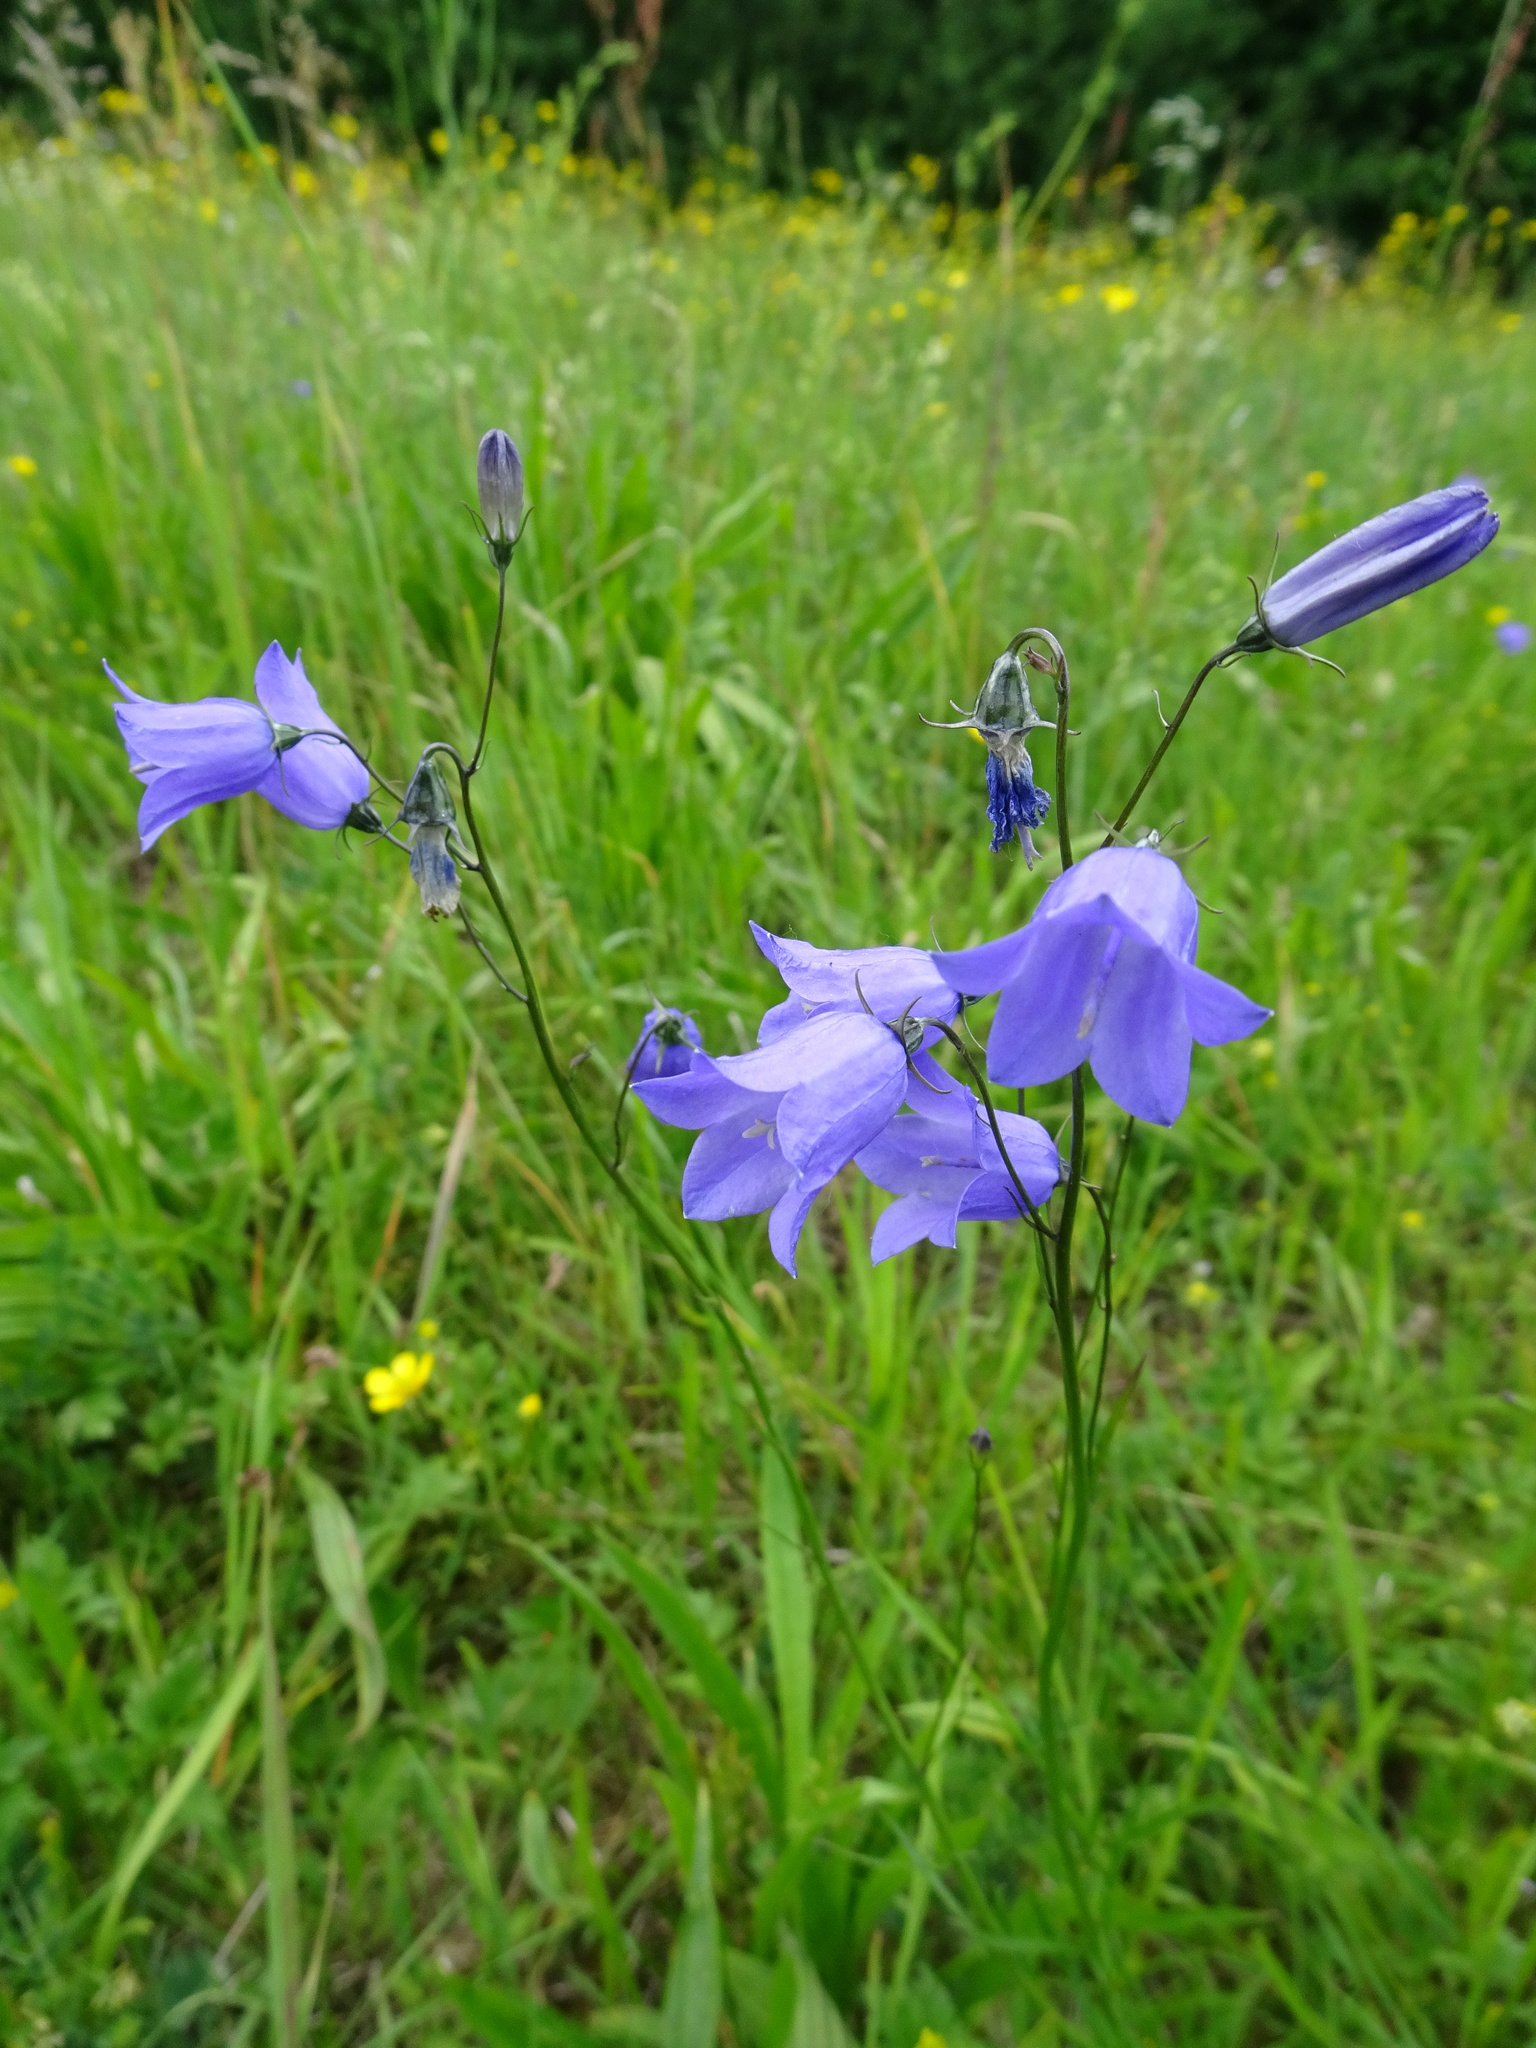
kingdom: Plantae
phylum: Tracheophyta
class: Magnoliopsida
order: Asterales
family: Campanulaceae
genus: Campanula
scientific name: Campanula rotundifolia
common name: Harebell
